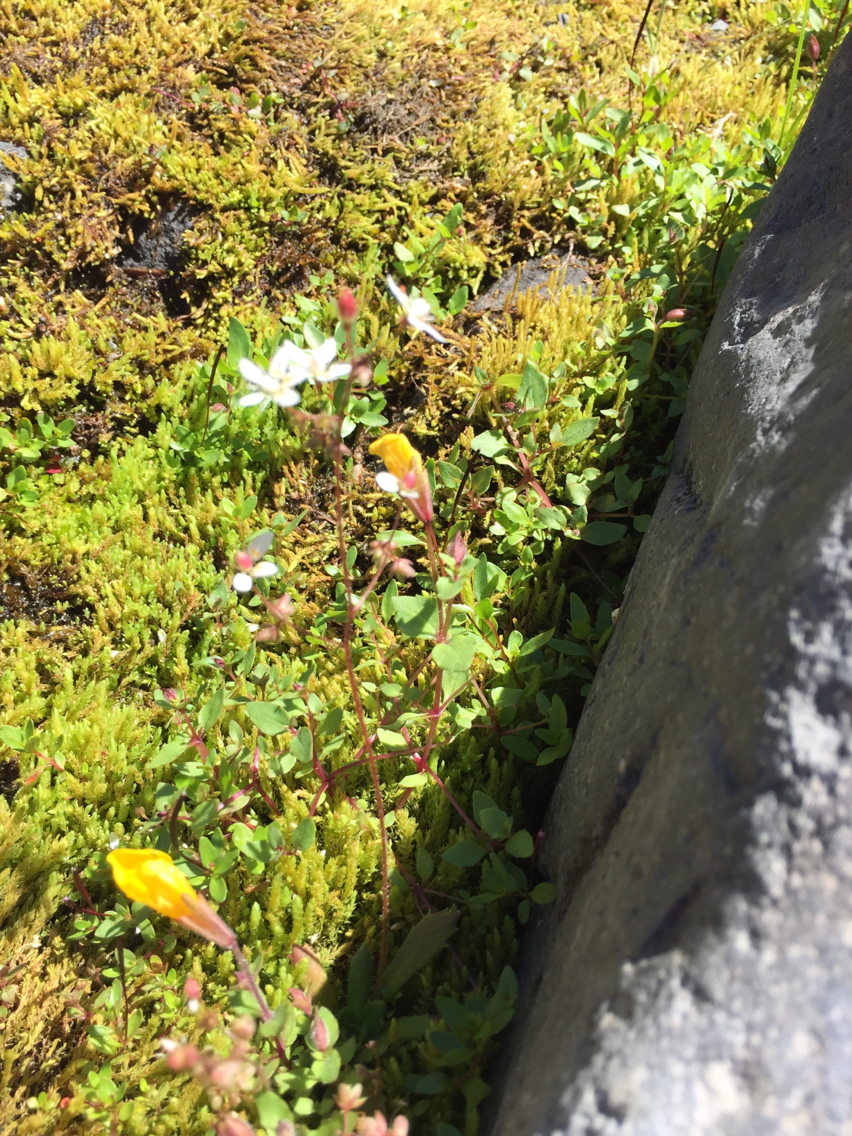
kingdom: Plantae
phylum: Tracheophyta
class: Magnoliopsida
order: Saxifragales
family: Saxifragaceae
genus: Micranthes
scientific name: Micranthes ferruginea
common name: Rusty saxifrage
